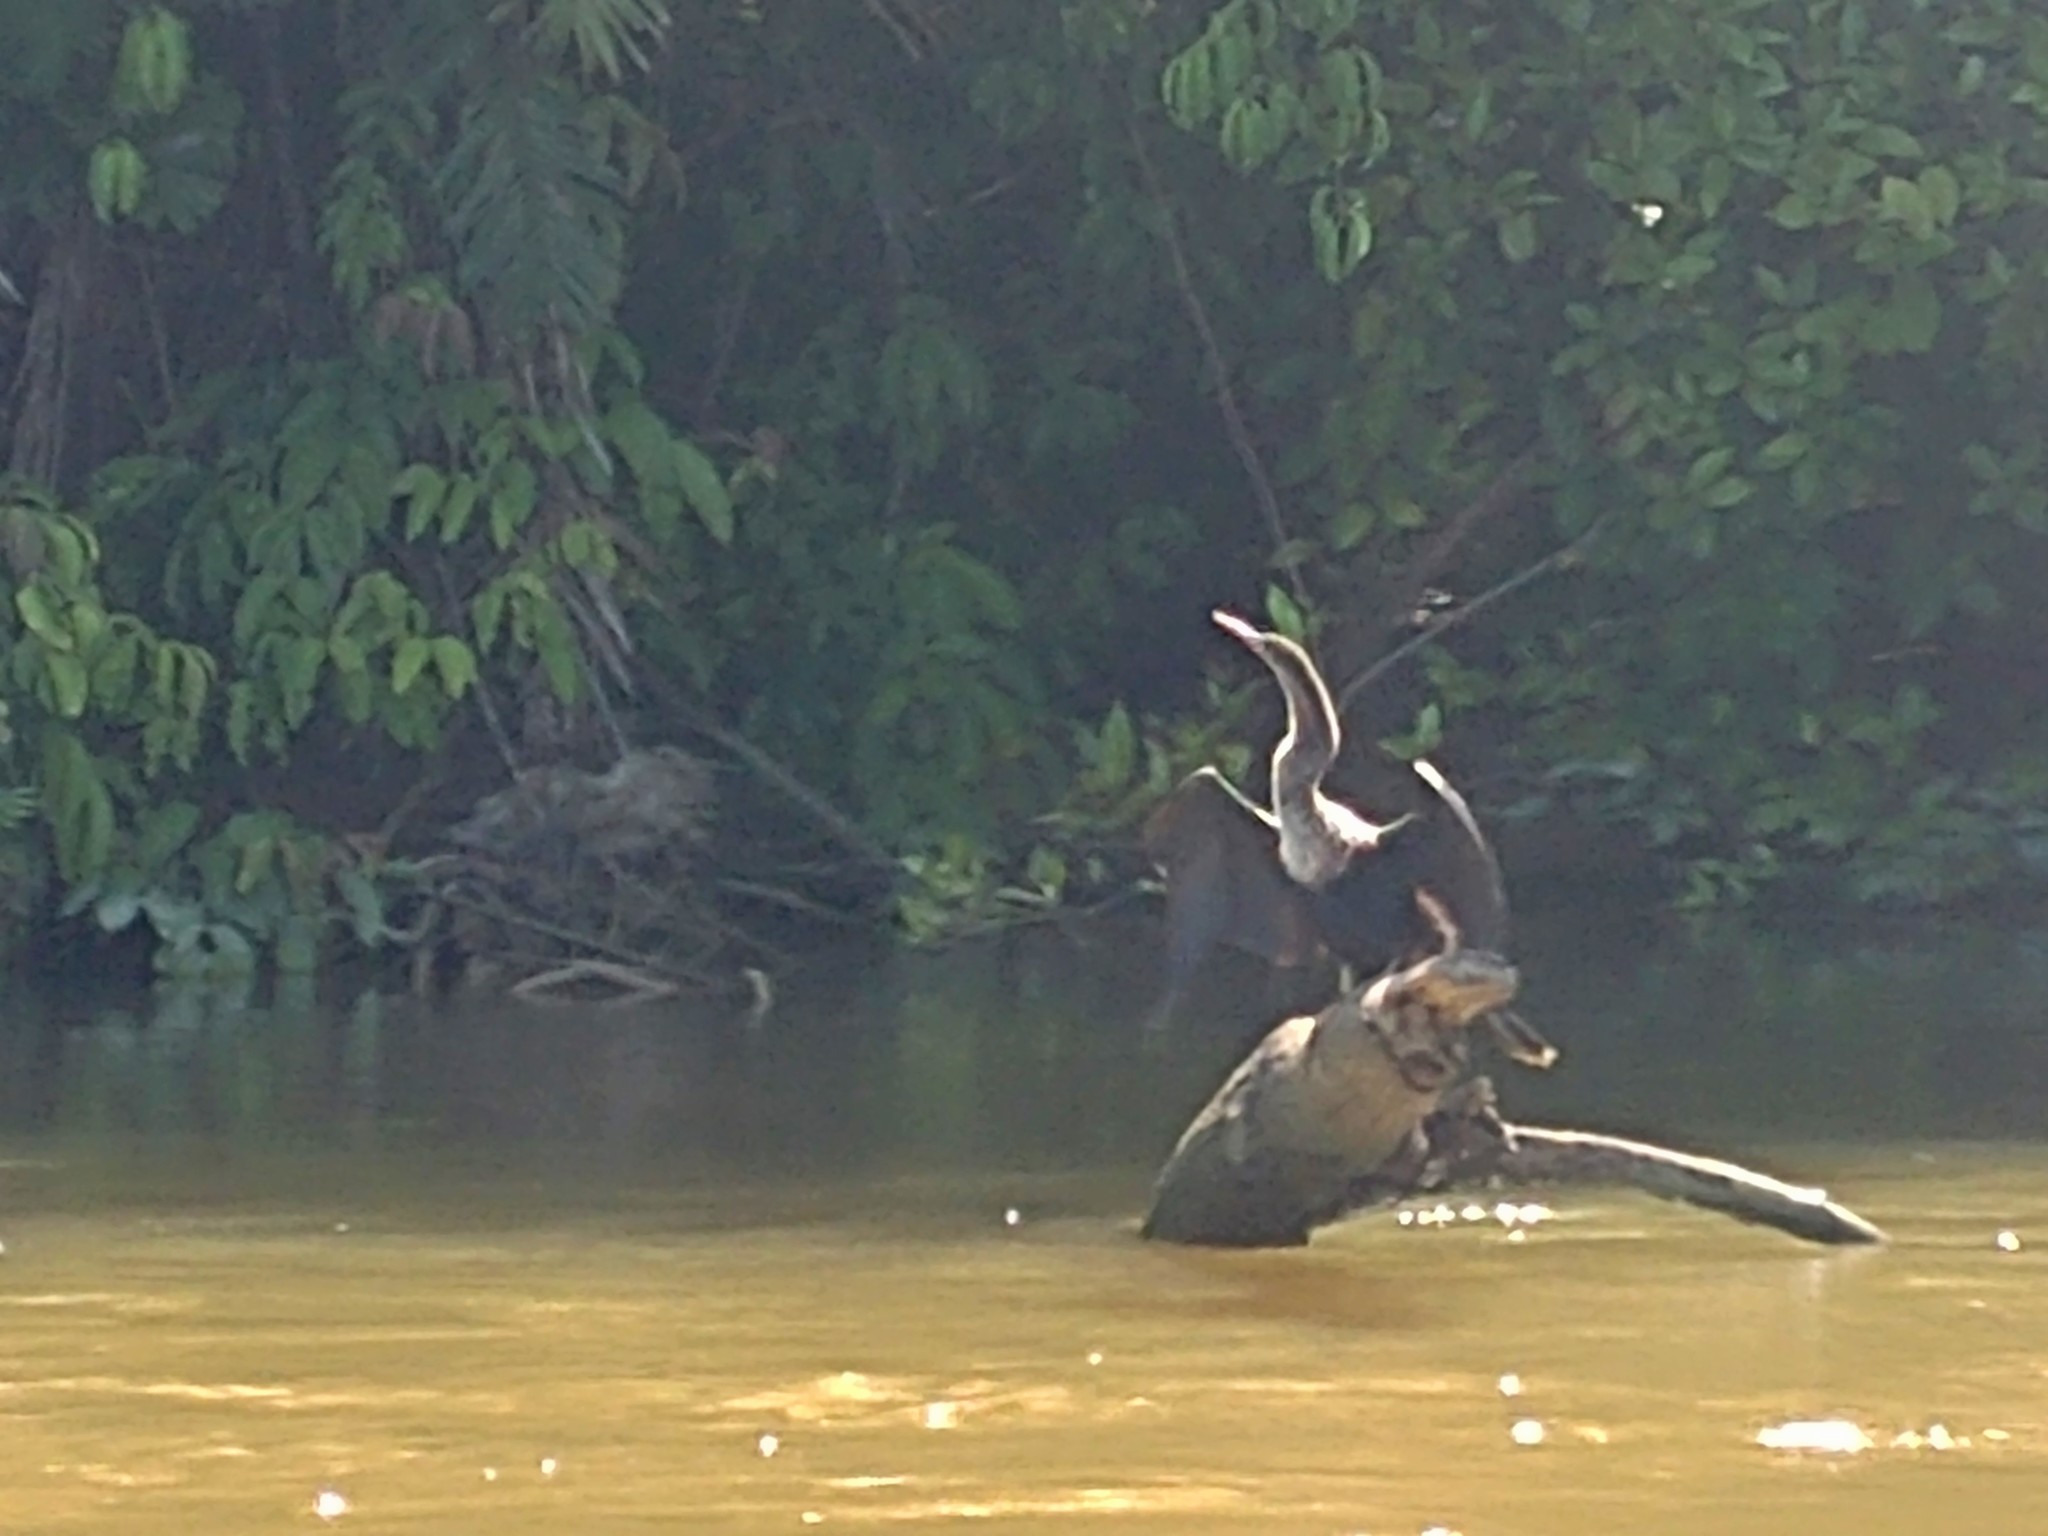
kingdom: Animalia
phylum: Chordata
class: Aves
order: Suliformes
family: Anhingidae
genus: Anhinga
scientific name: Anhinga anhinga
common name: Anhinga
